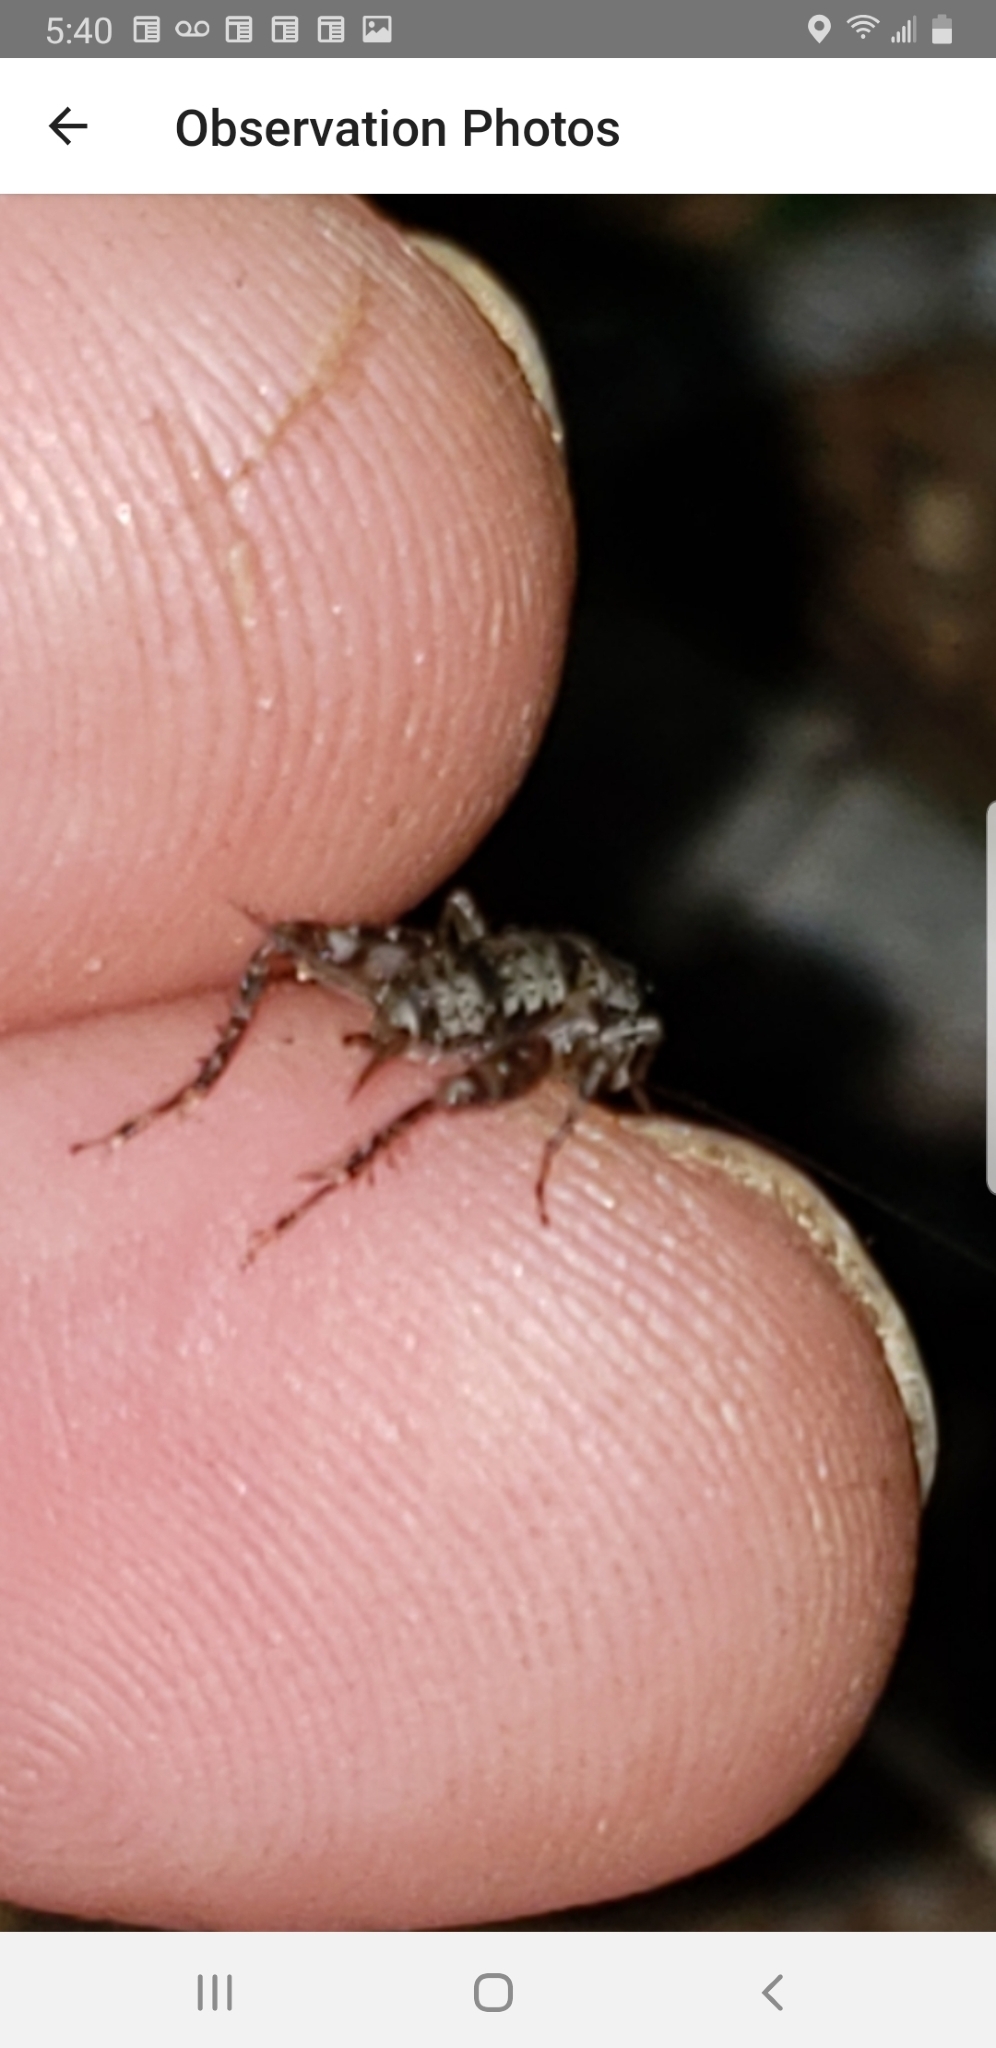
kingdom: Animalia
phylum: Arthropoda
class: Insecta
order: Orthoptera
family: Trigonidiidae
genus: Allonemobius
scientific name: Allonemobius maculatus
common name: Larger spotted ground cricket
